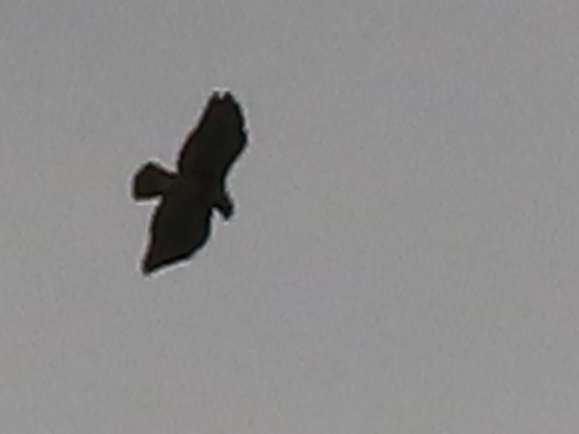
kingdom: Animalia
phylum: Chordata
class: Aves
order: Accipitriformes
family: Accipitridae
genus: Buteo
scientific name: Buteo jamaicensis
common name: Red-tailed hawk
